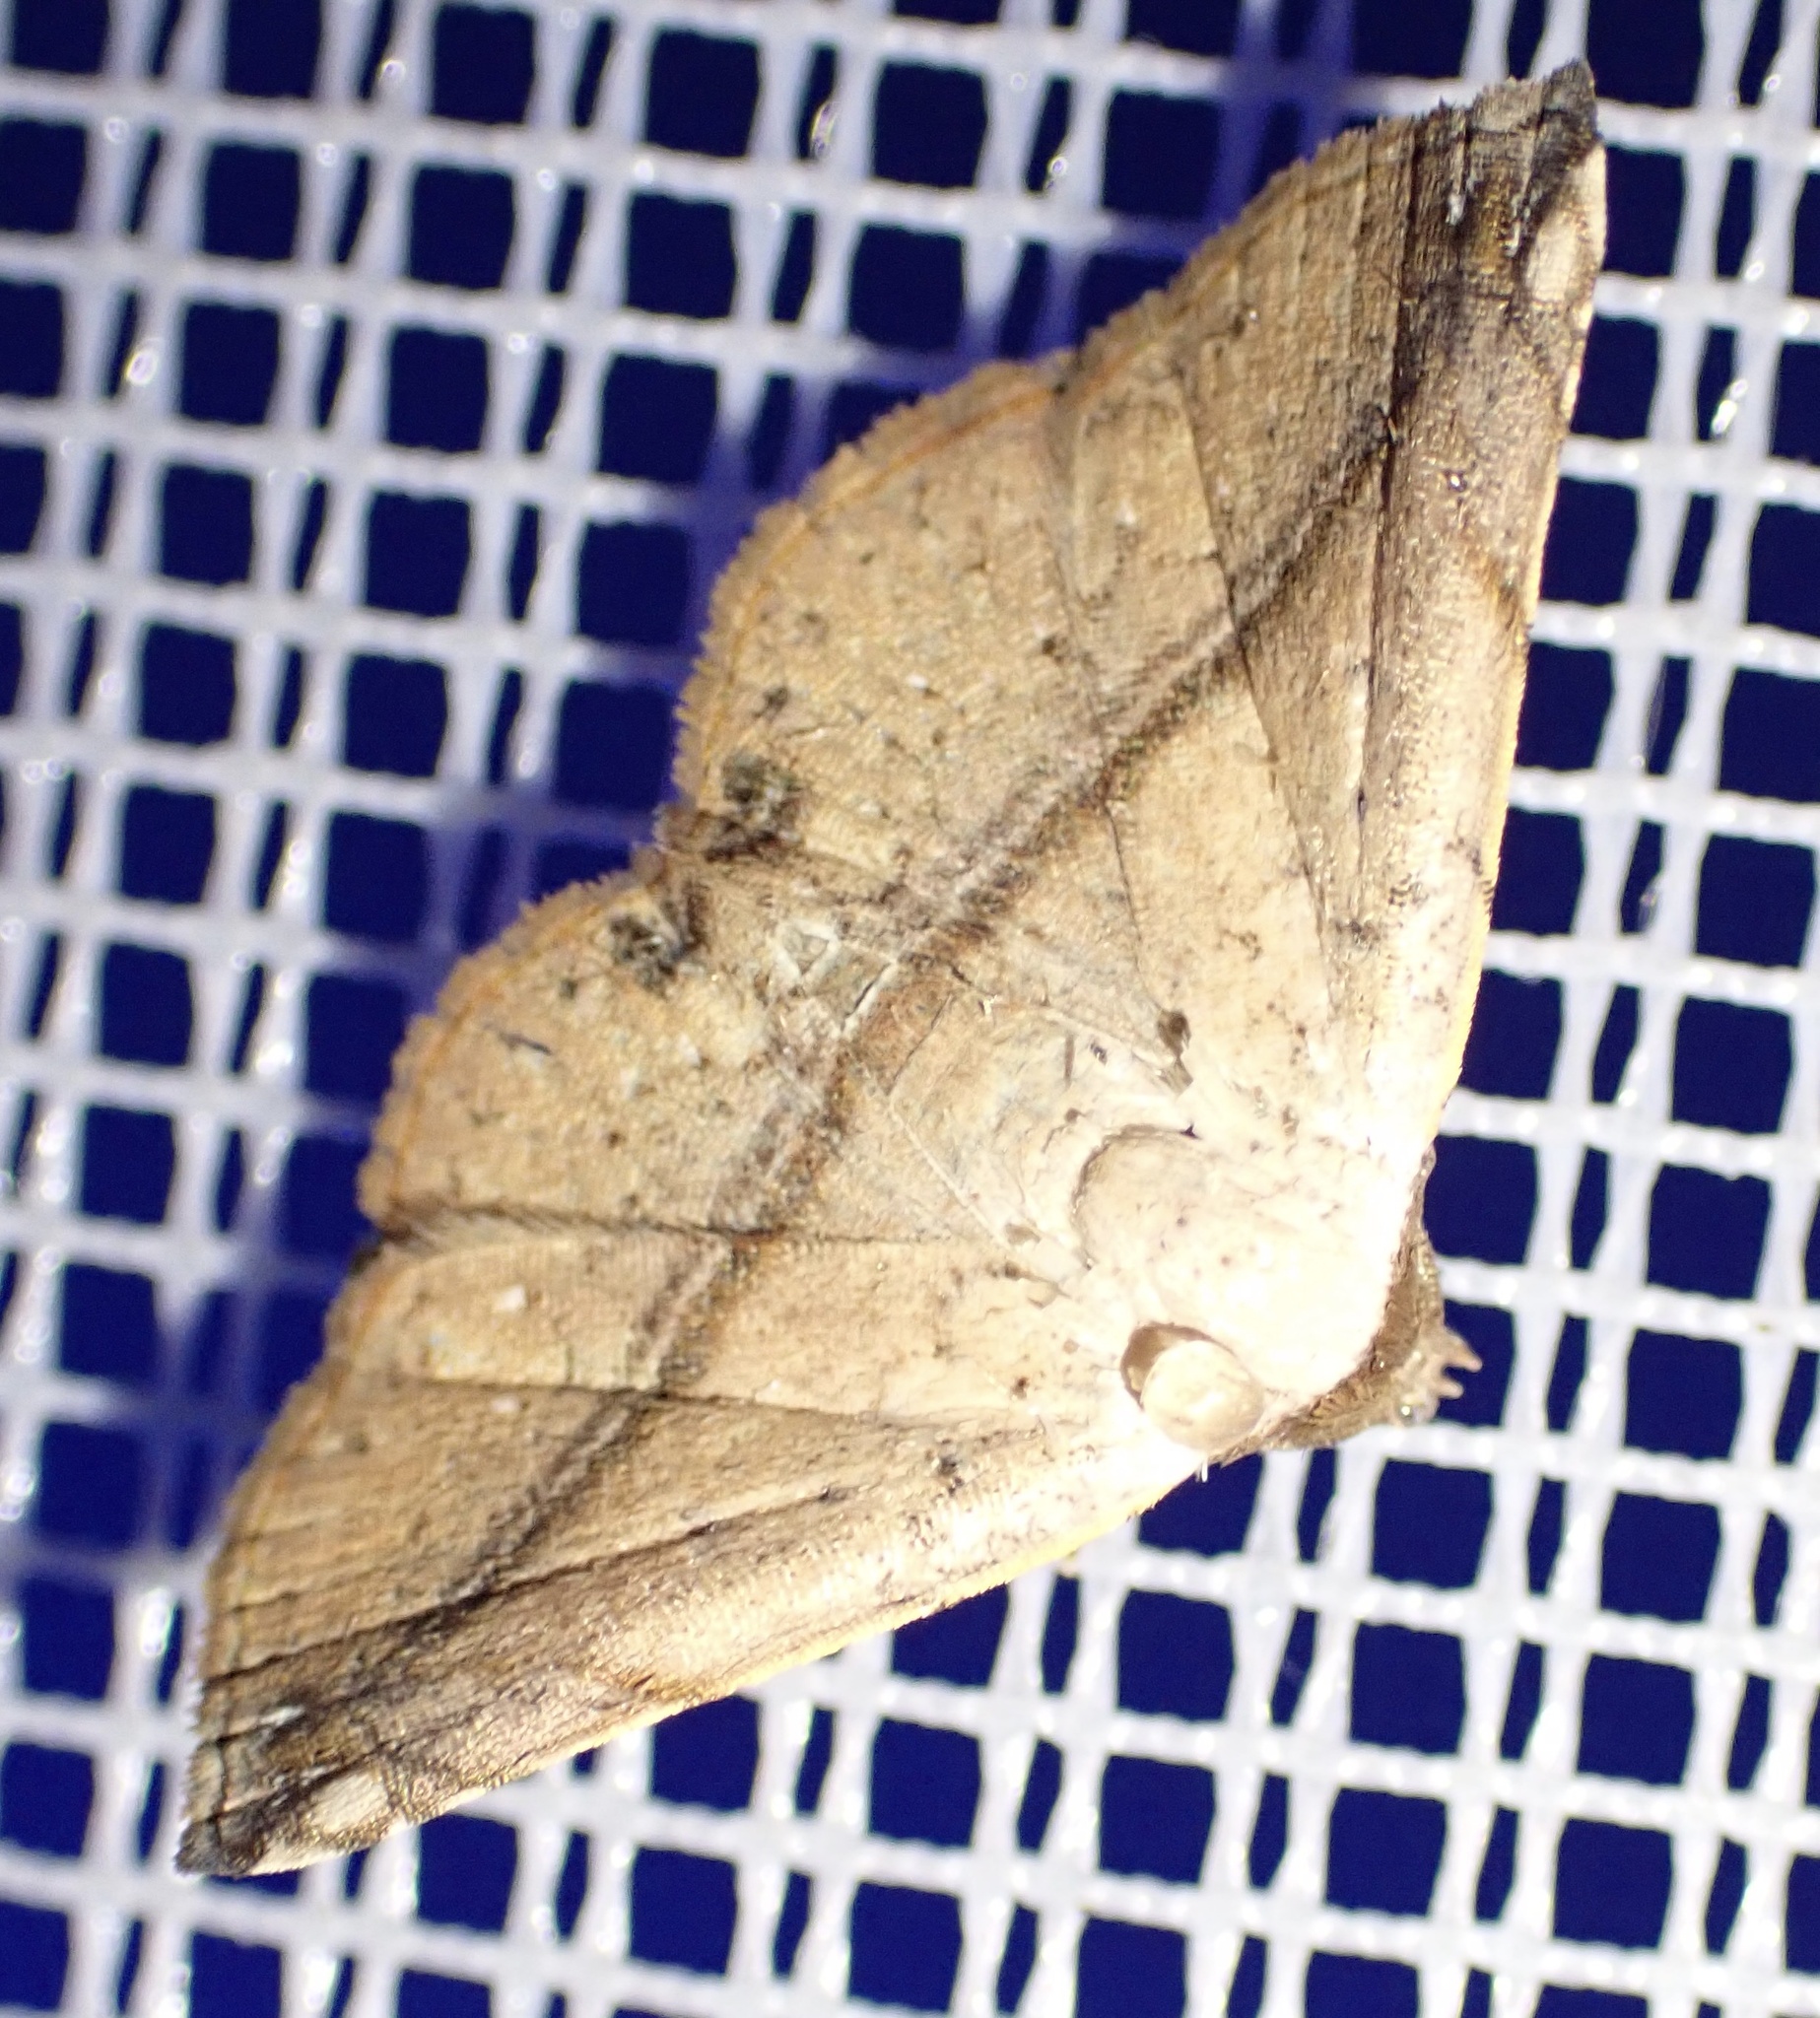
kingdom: Animalia
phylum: Arthropoda
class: Insecta
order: Lepidoptera
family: Noctuidae
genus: Eublemma
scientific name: Eublemma abrupta
